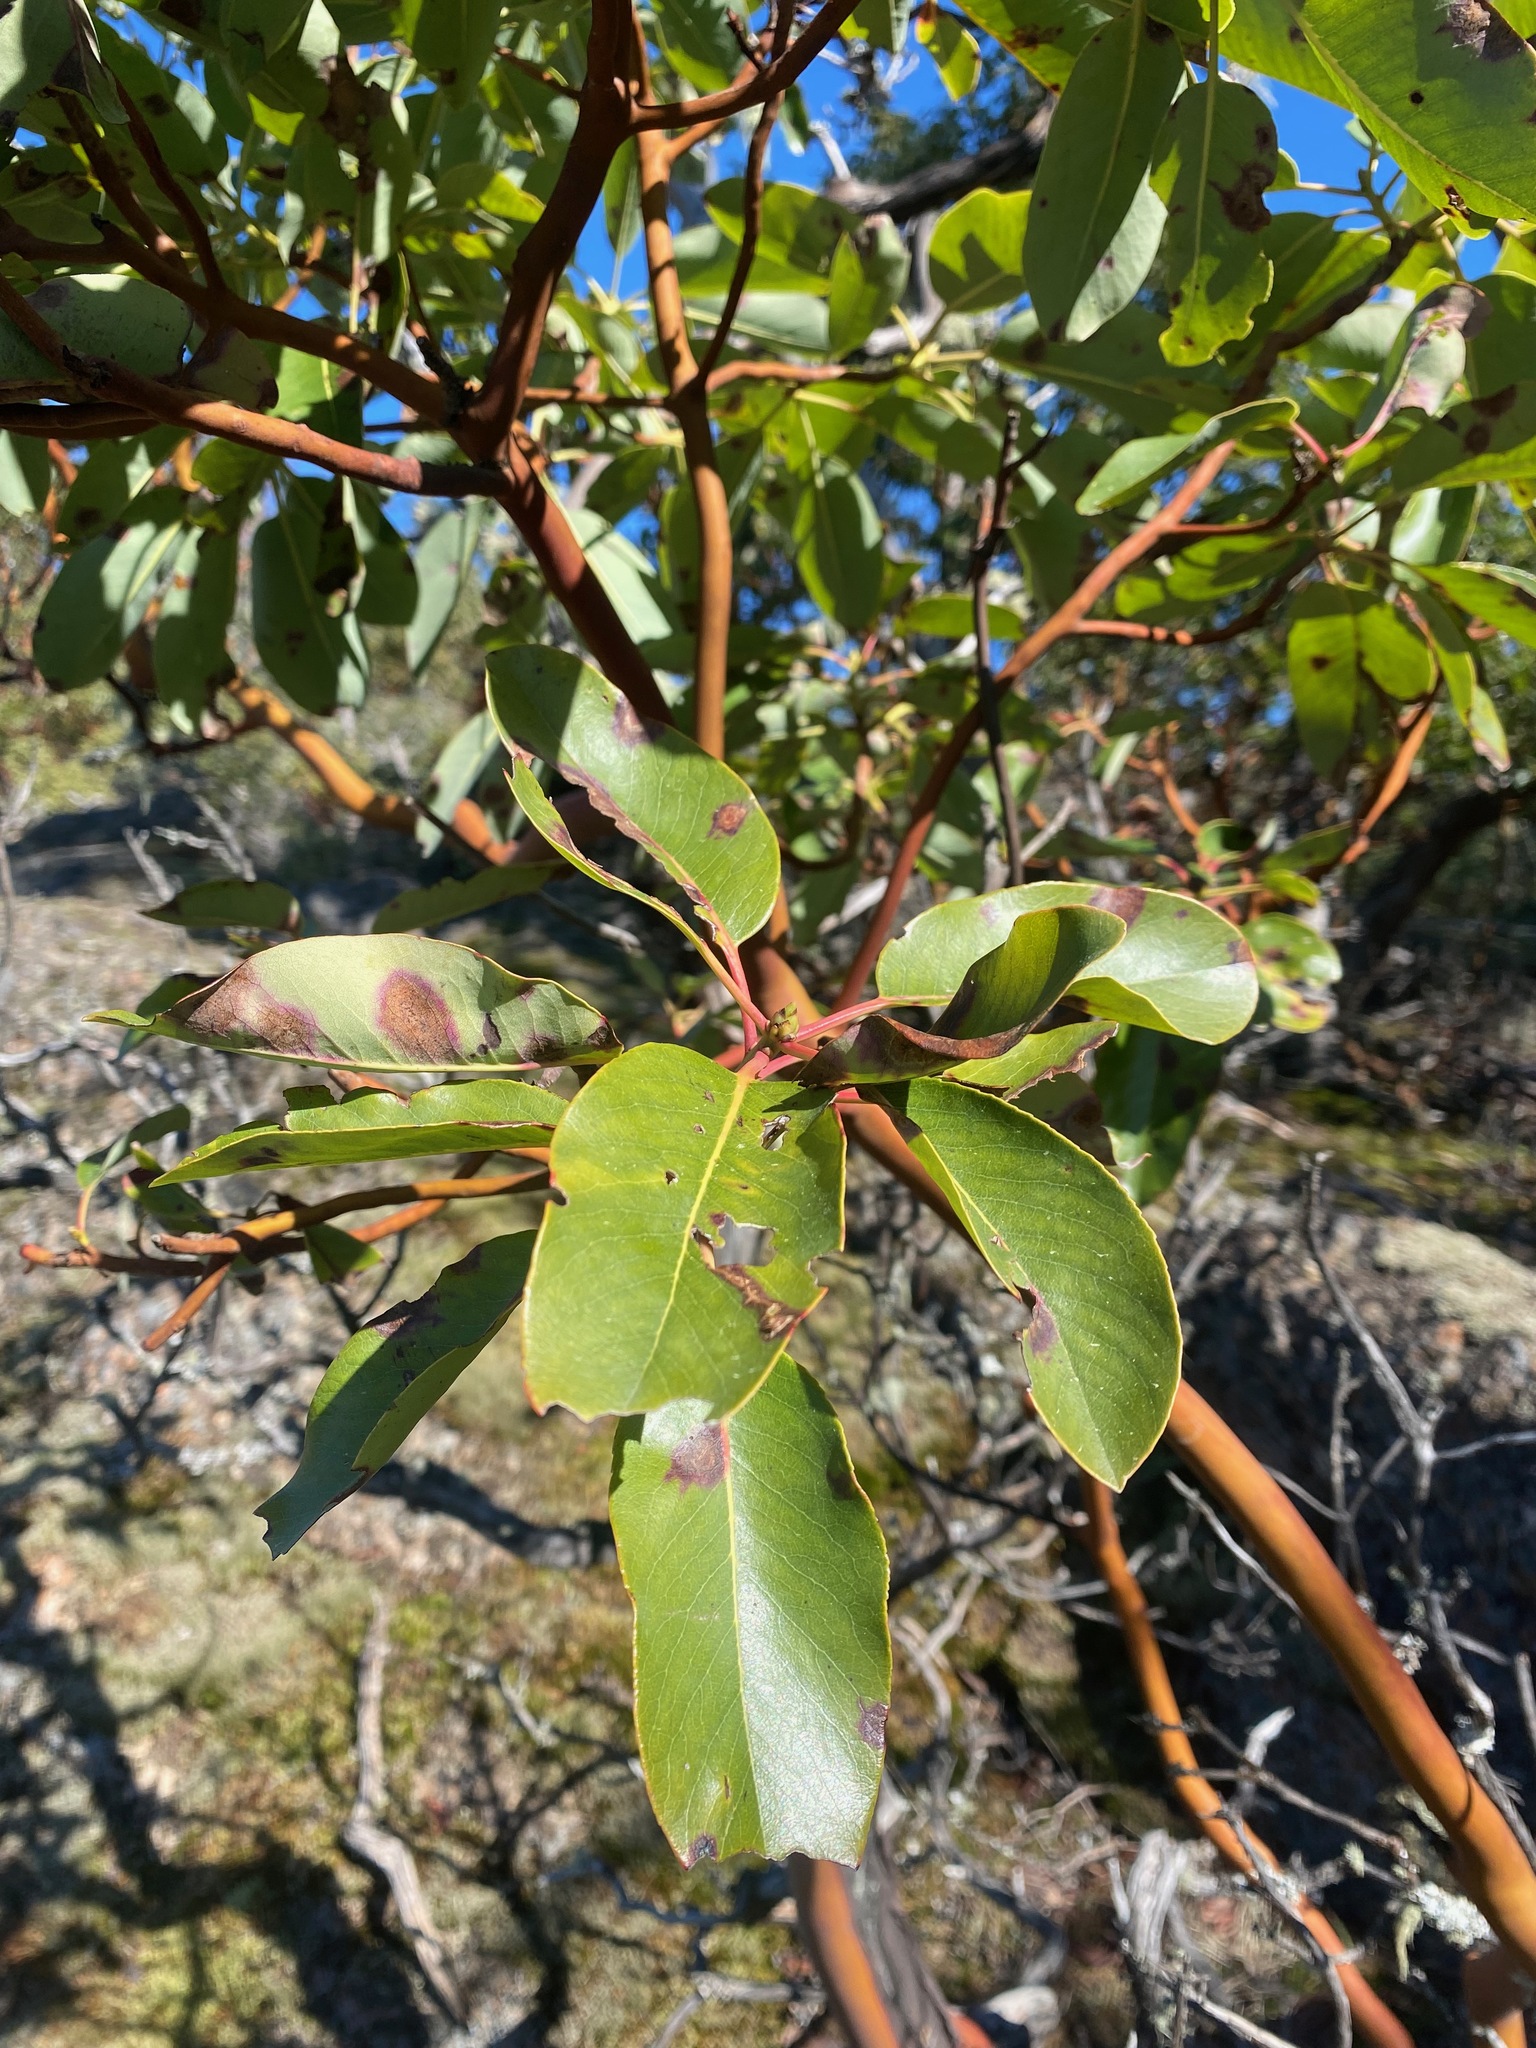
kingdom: Plantae
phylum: Tracheophyta
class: Magnoliopsida
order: Ericales
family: Ericaceae
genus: Arbutus
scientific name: Arbutus menziesii
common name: Pacific madrone
